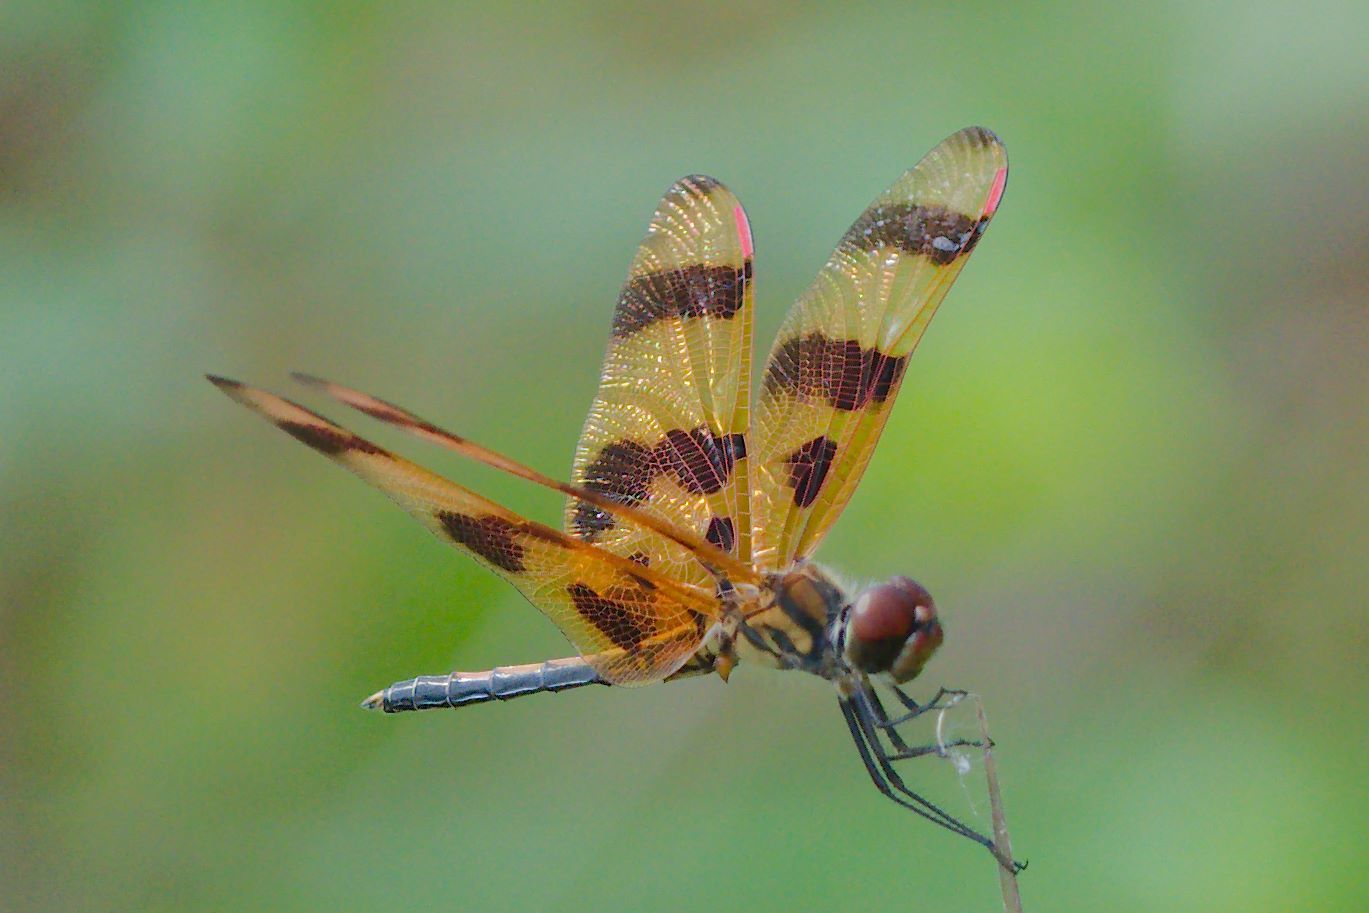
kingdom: Animalia
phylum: Arthropoda
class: Insecta
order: Odonata
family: Libellulidae
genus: Celithemis
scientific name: Celithemis eponina
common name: Halloween pennant
